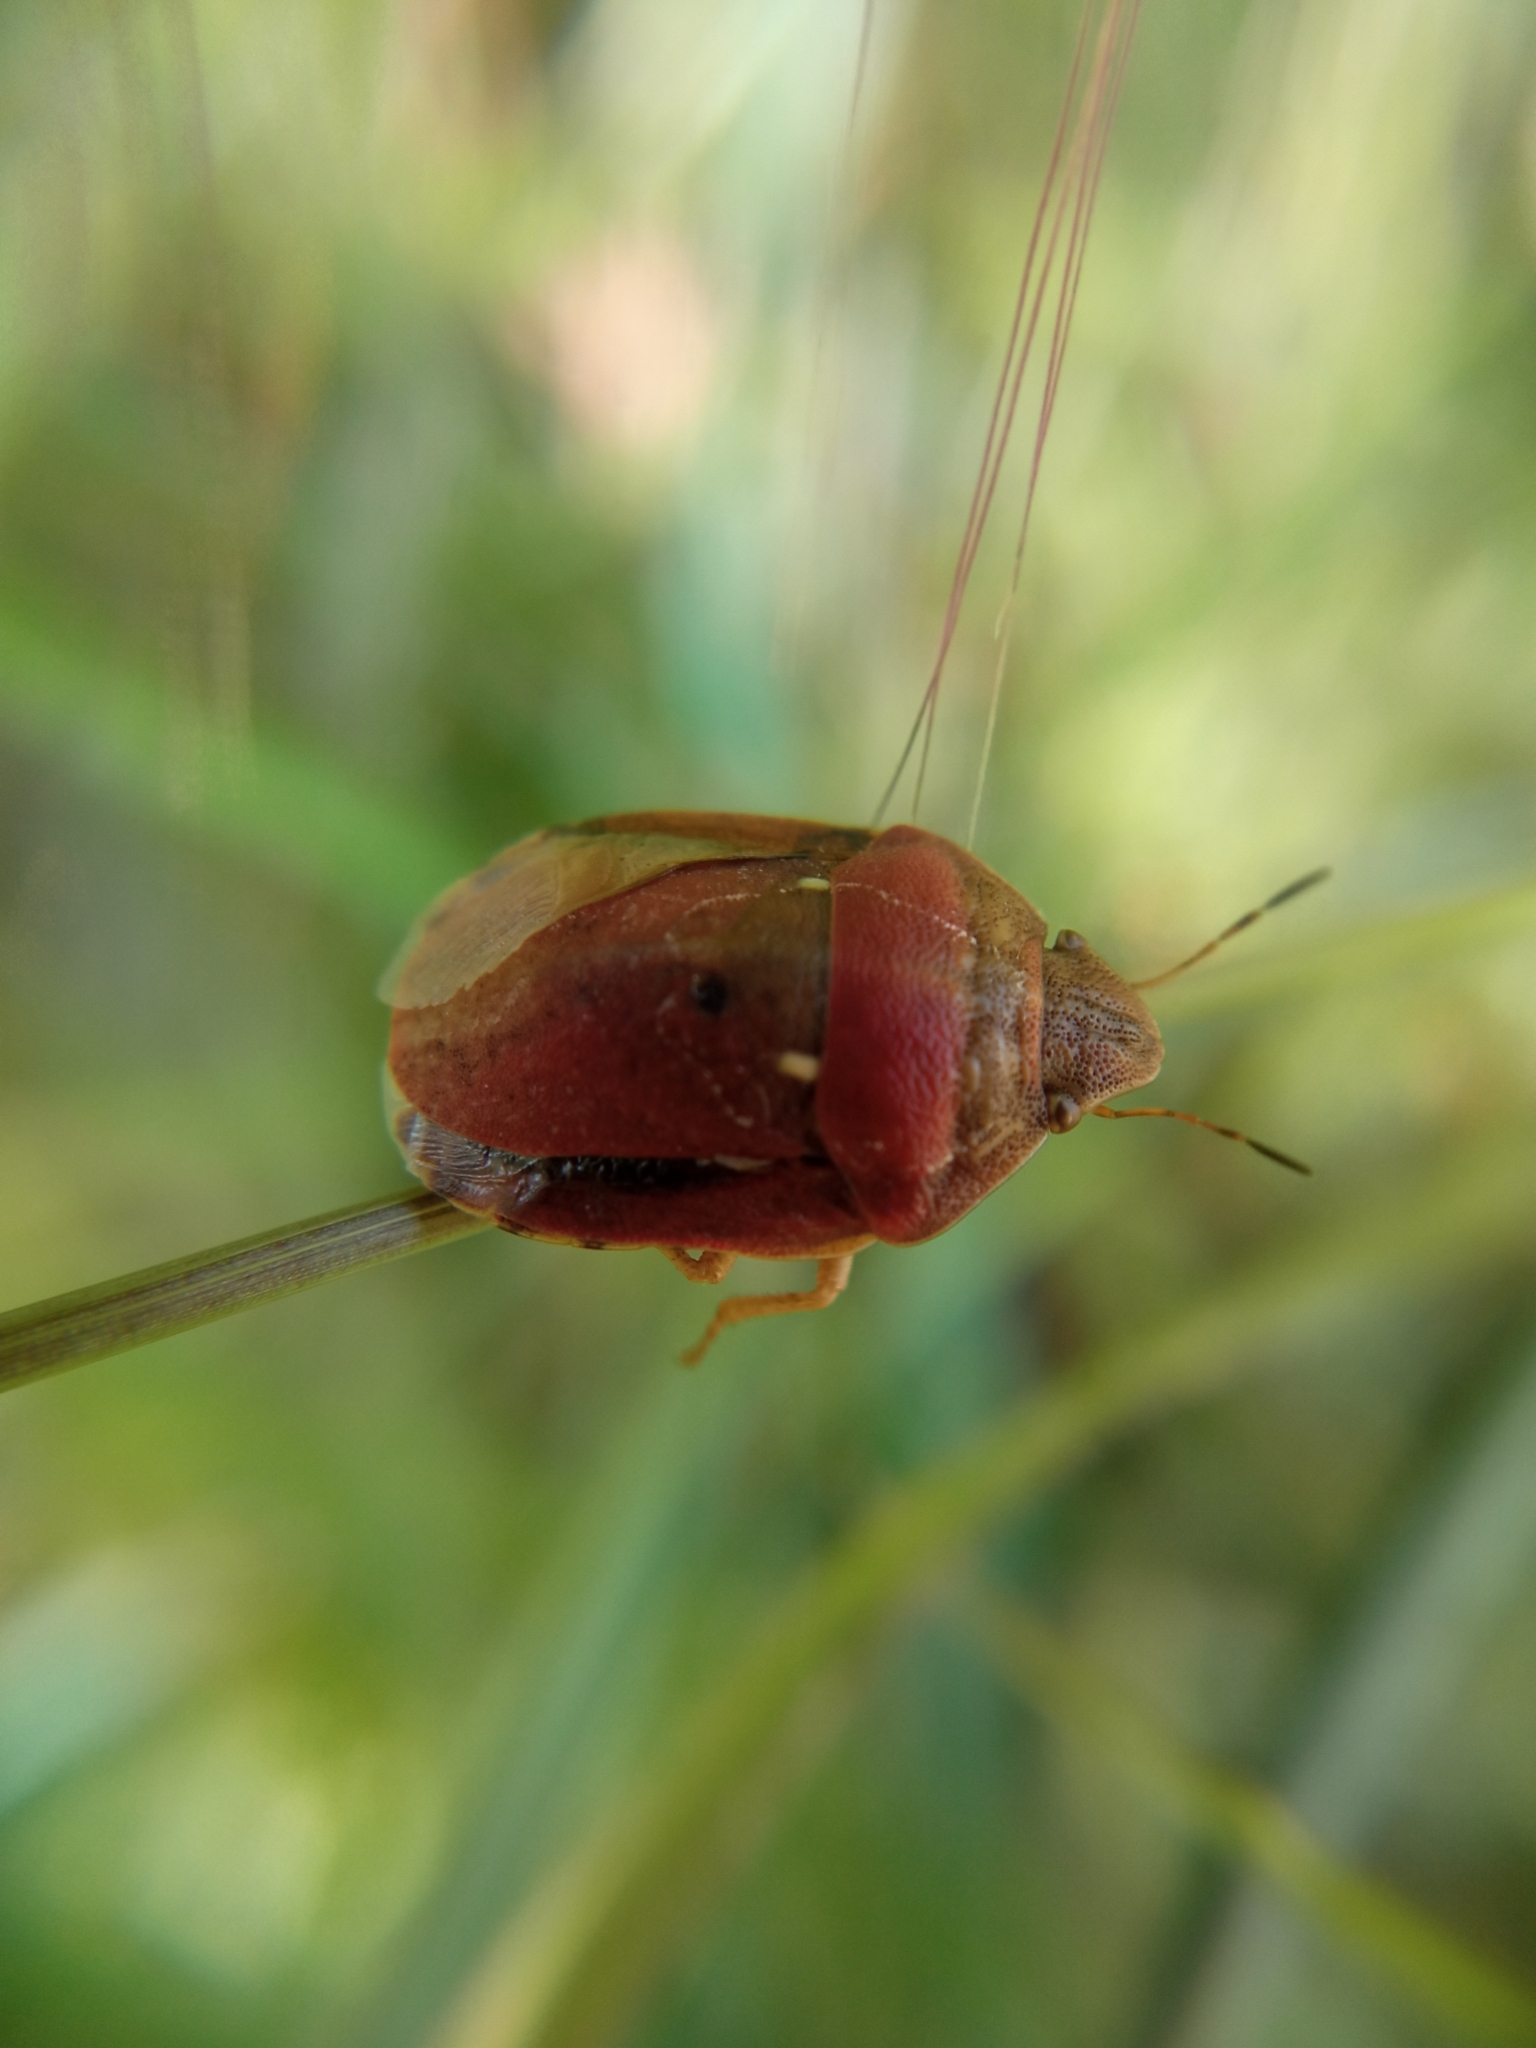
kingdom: Animalia
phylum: Arthropoda
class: Insecta
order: Hemiptera
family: Scutelleridae
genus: Eurygaster
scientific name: Eurygaster maura
